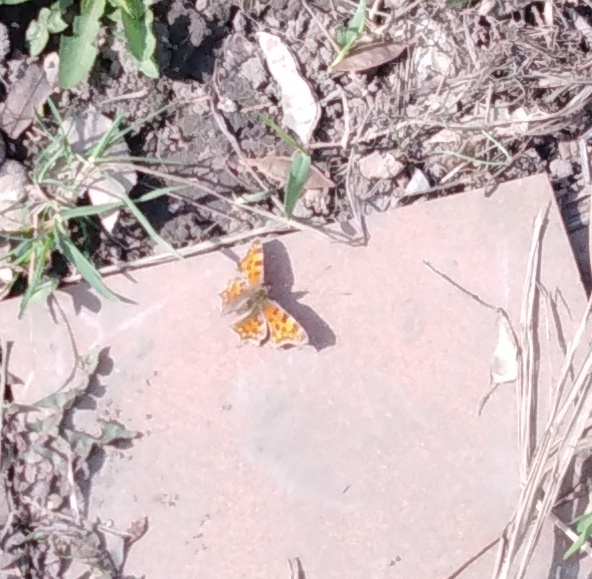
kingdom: Animalia
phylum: Arthropoda
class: Insecta
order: Lepidoptera
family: Nymphalidae
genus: Polygonia
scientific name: Polygonia c-album
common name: Comma
